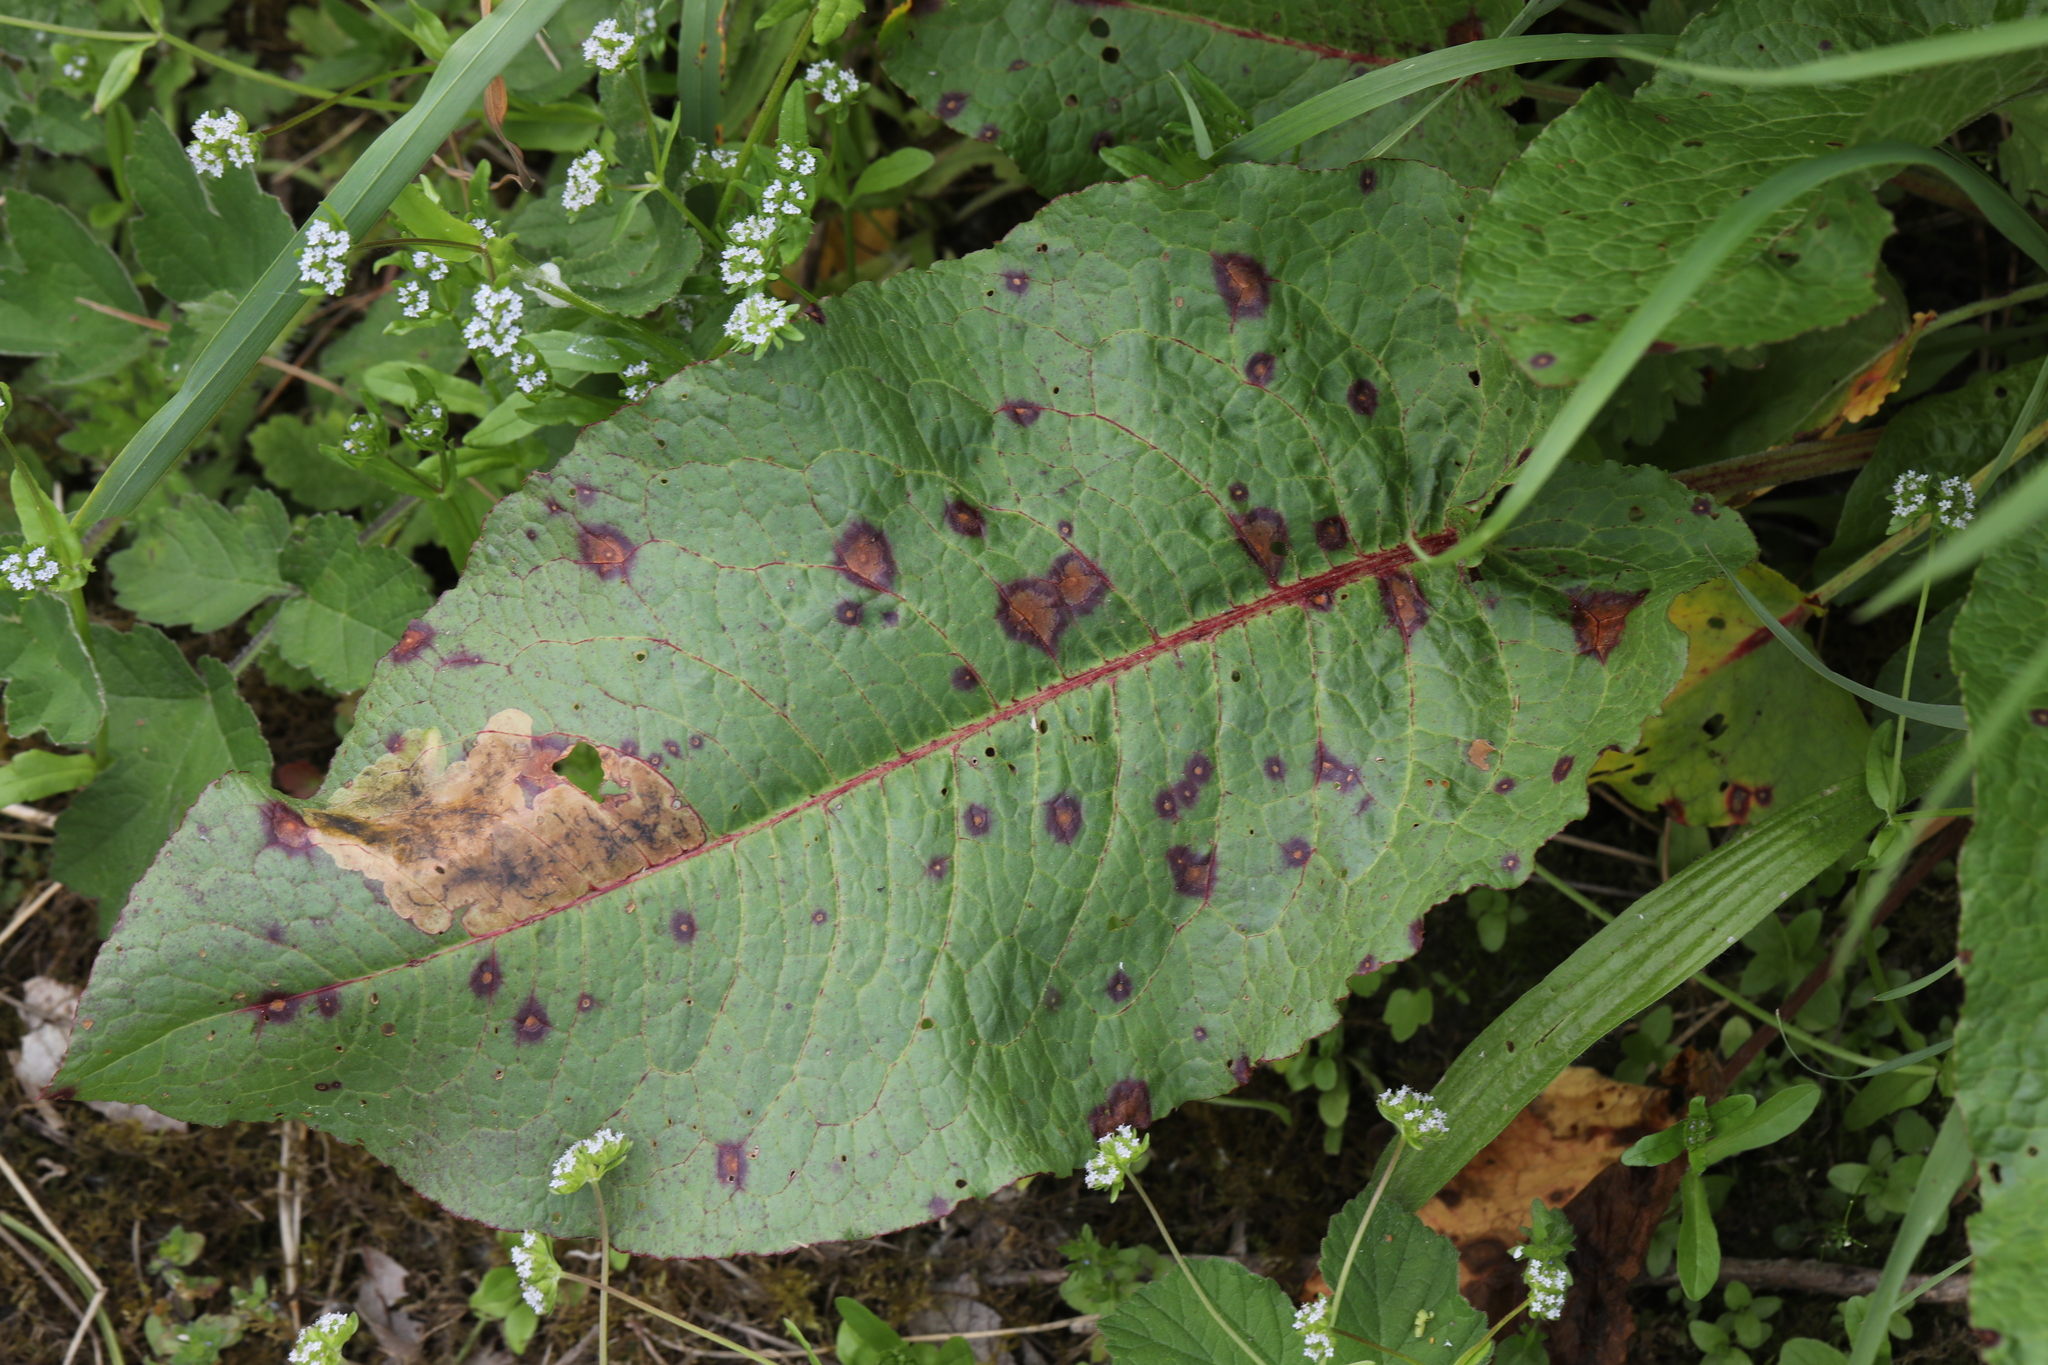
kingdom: Plantae
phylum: Tracheophyta
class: Magnoliopsida
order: Caryophyllales
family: Polygonaceae
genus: Rumex
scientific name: Rumex obtusifolius
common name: Bitter dock
